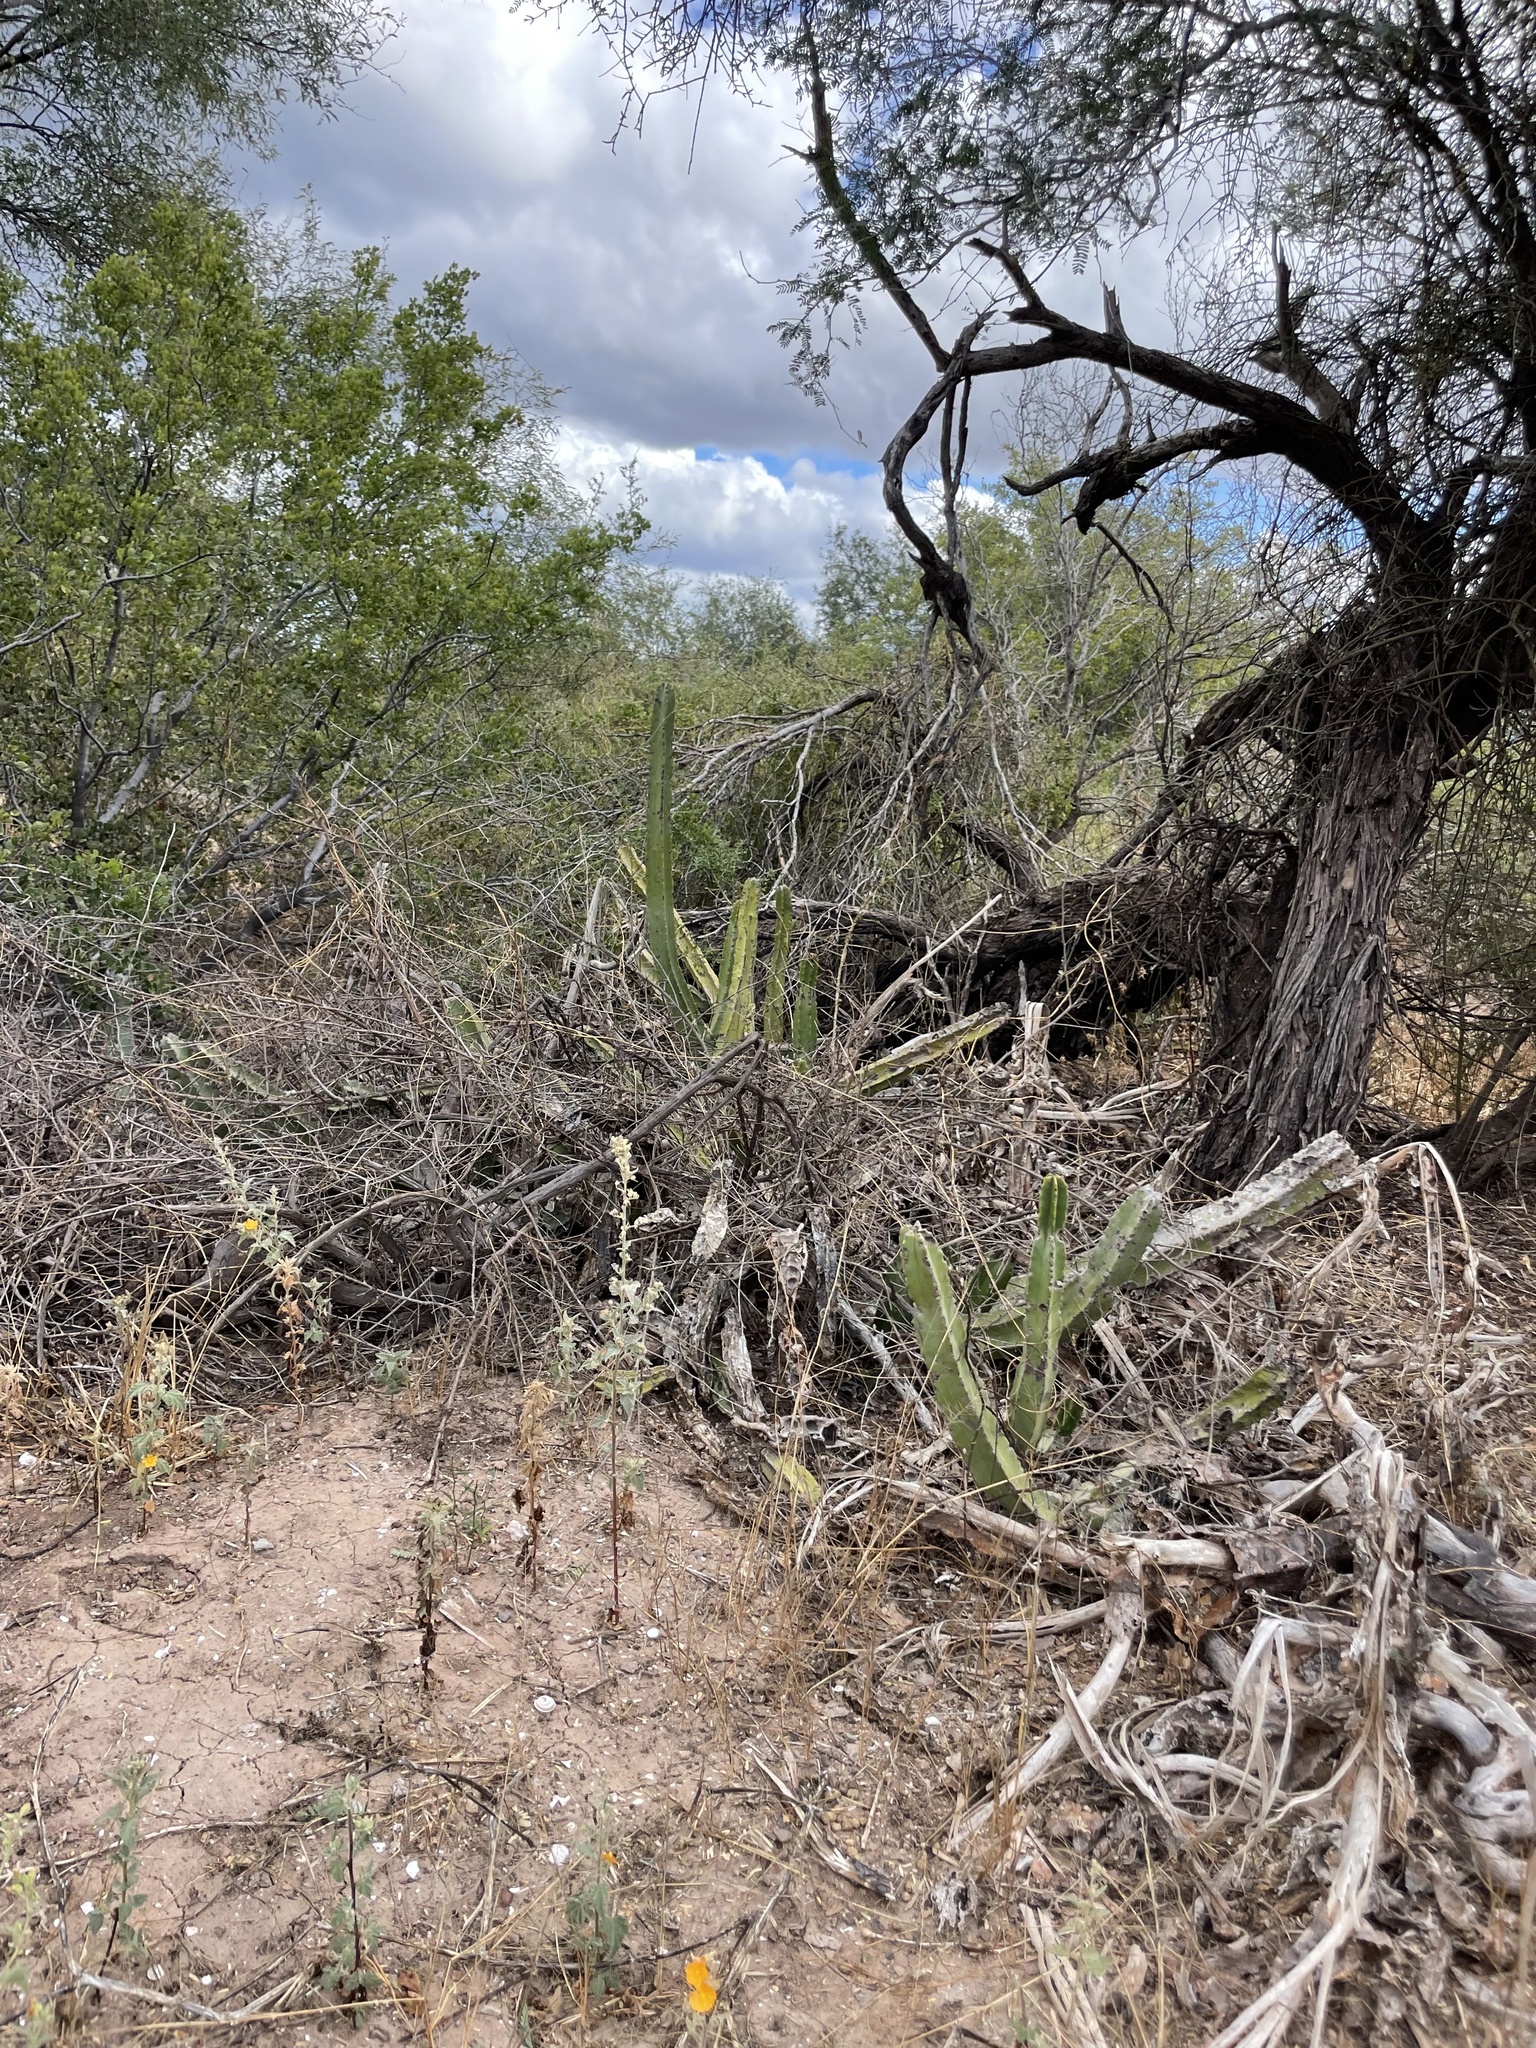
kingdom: Plantae
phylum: Tracheophyta
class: Magnoliopsida
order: Caryophyllales
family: Cactaceae
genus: Pachycereus
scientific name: Pachycereus schottii
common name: Senita cactus
